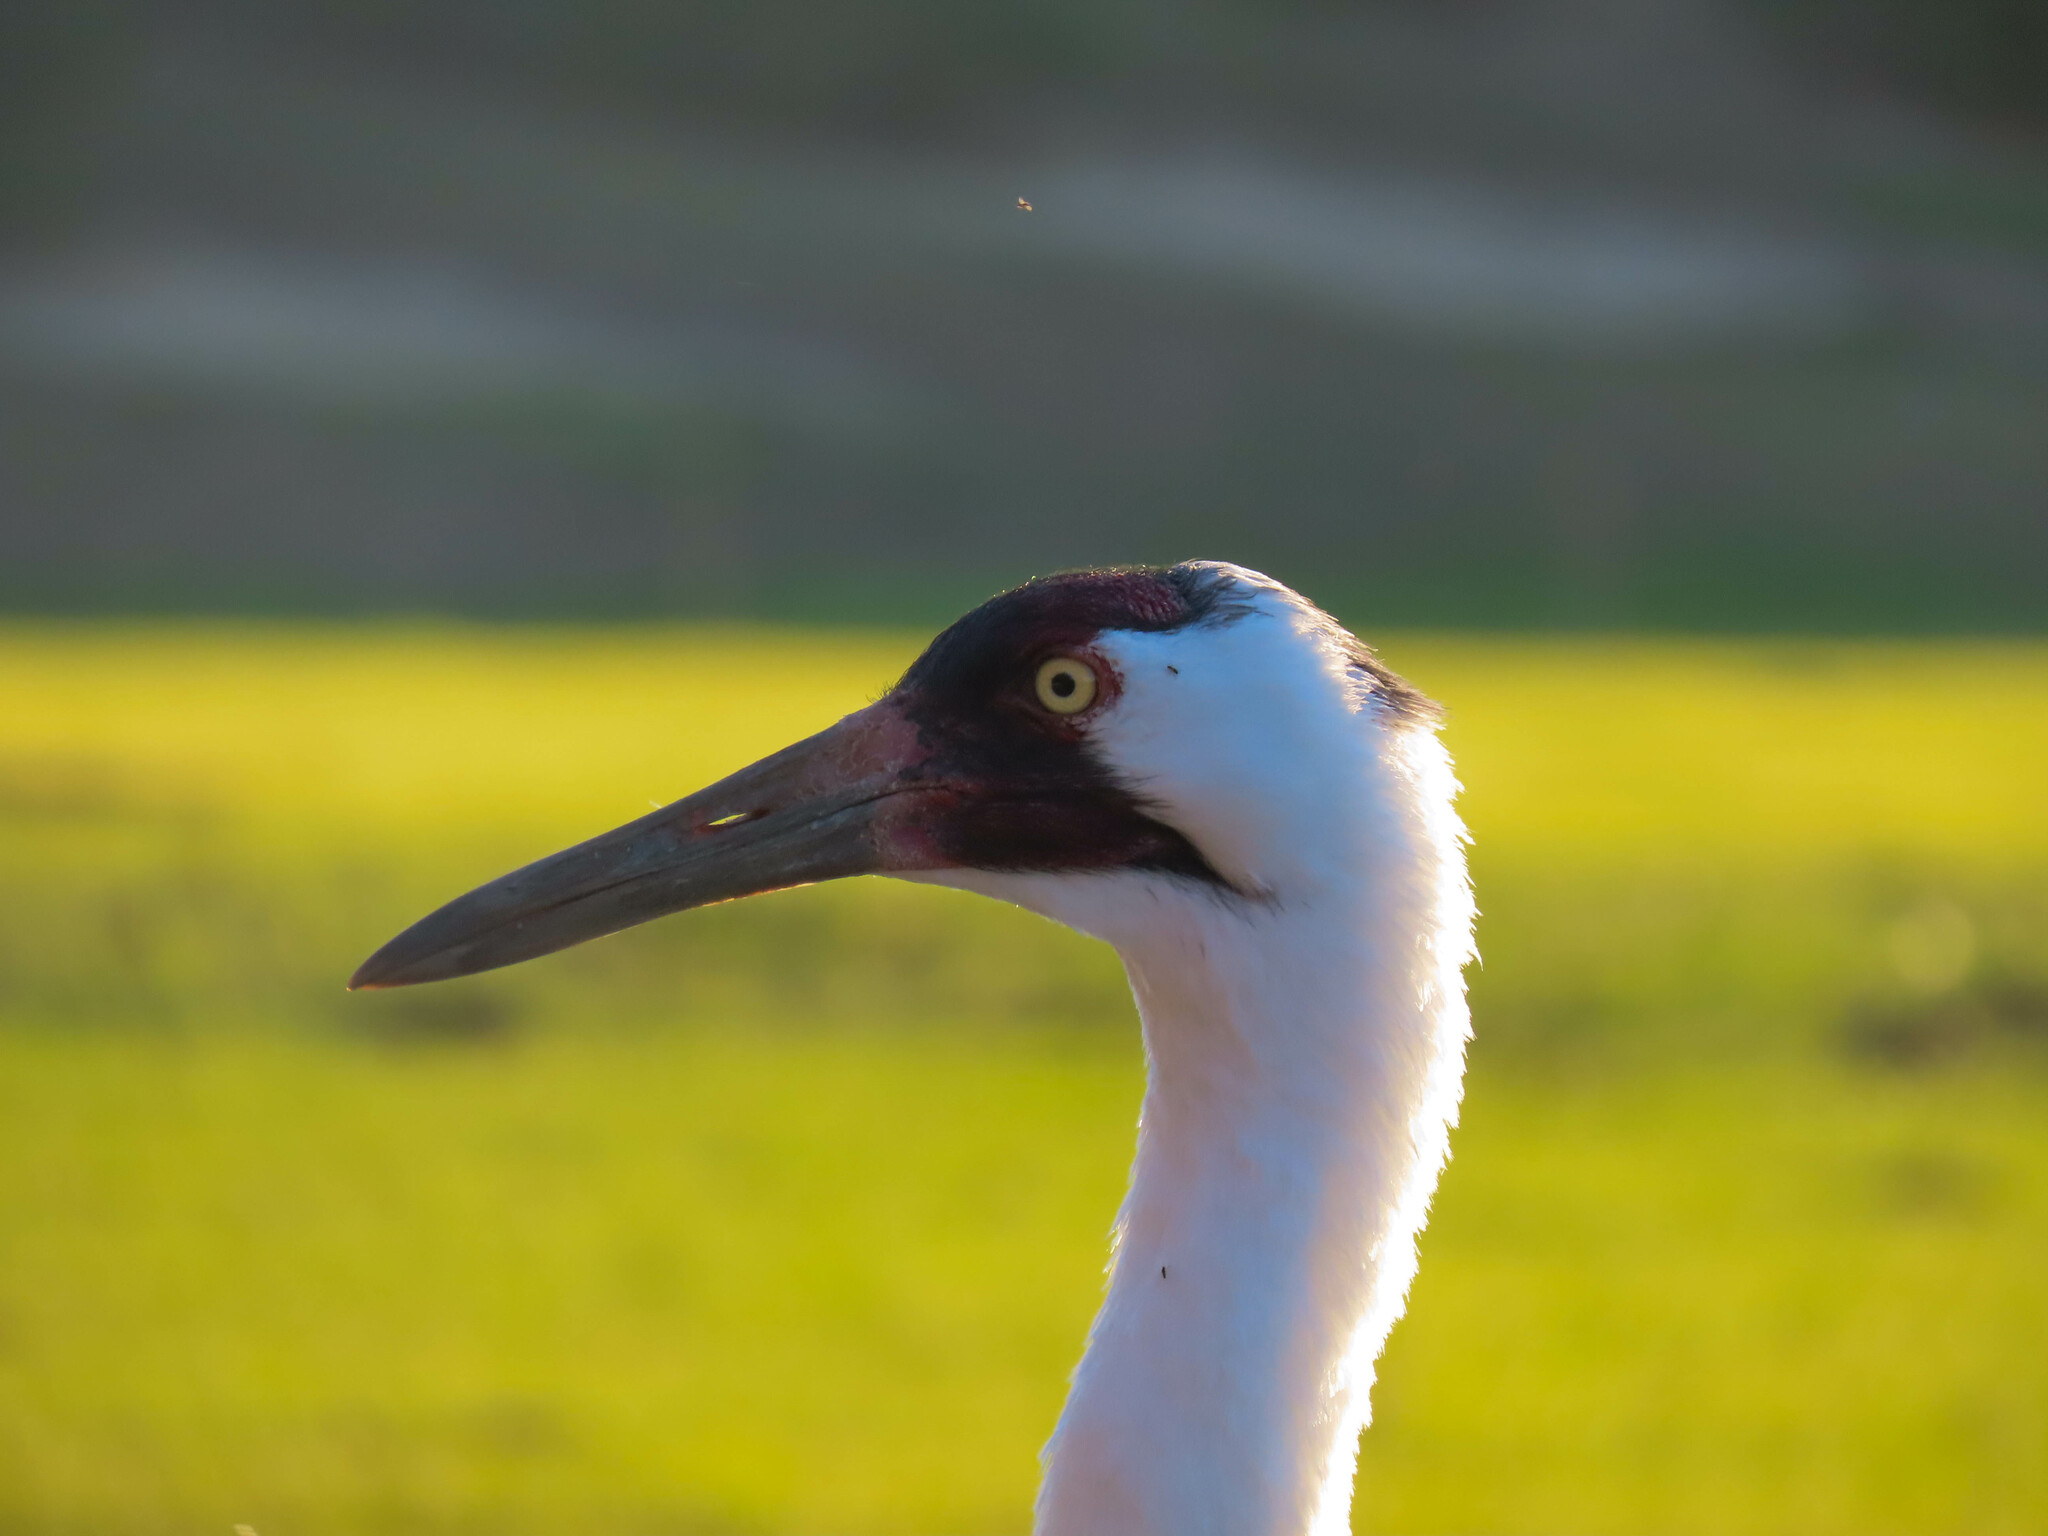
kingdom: Animalia
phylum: Chordata
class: Aves
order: Gruiformes
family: Gruidae
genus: Grus
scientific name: Grus americana
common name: Whooping crane
